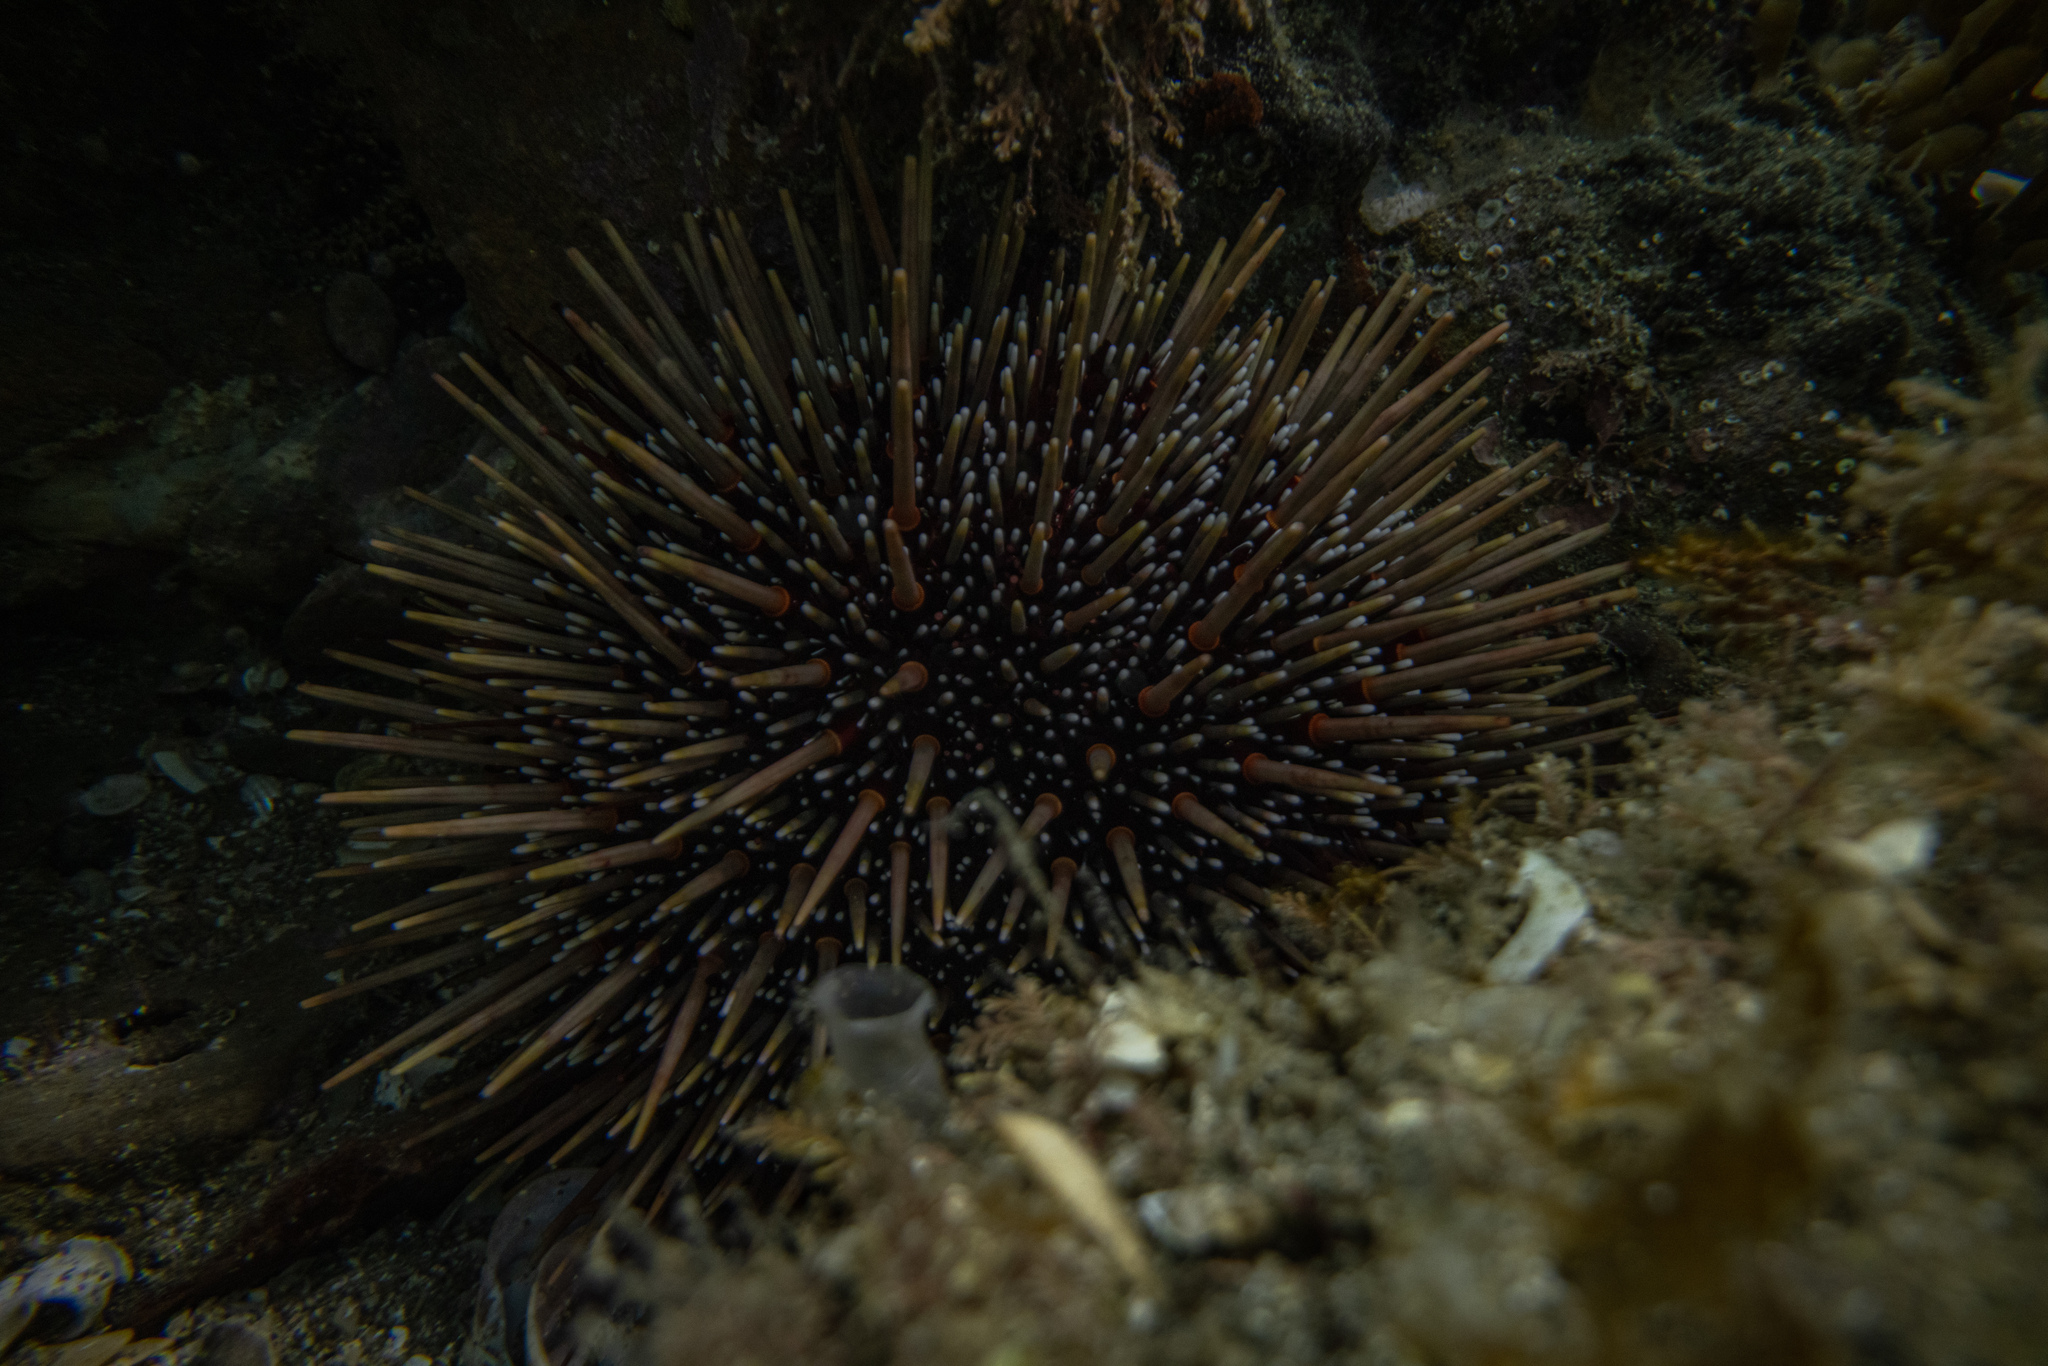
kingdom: Animalia
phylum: Echinodermata
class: Echinoidea
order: Camarodonta
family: Echinometridae
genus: Evechinus
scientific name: Evechinus chloroticus
